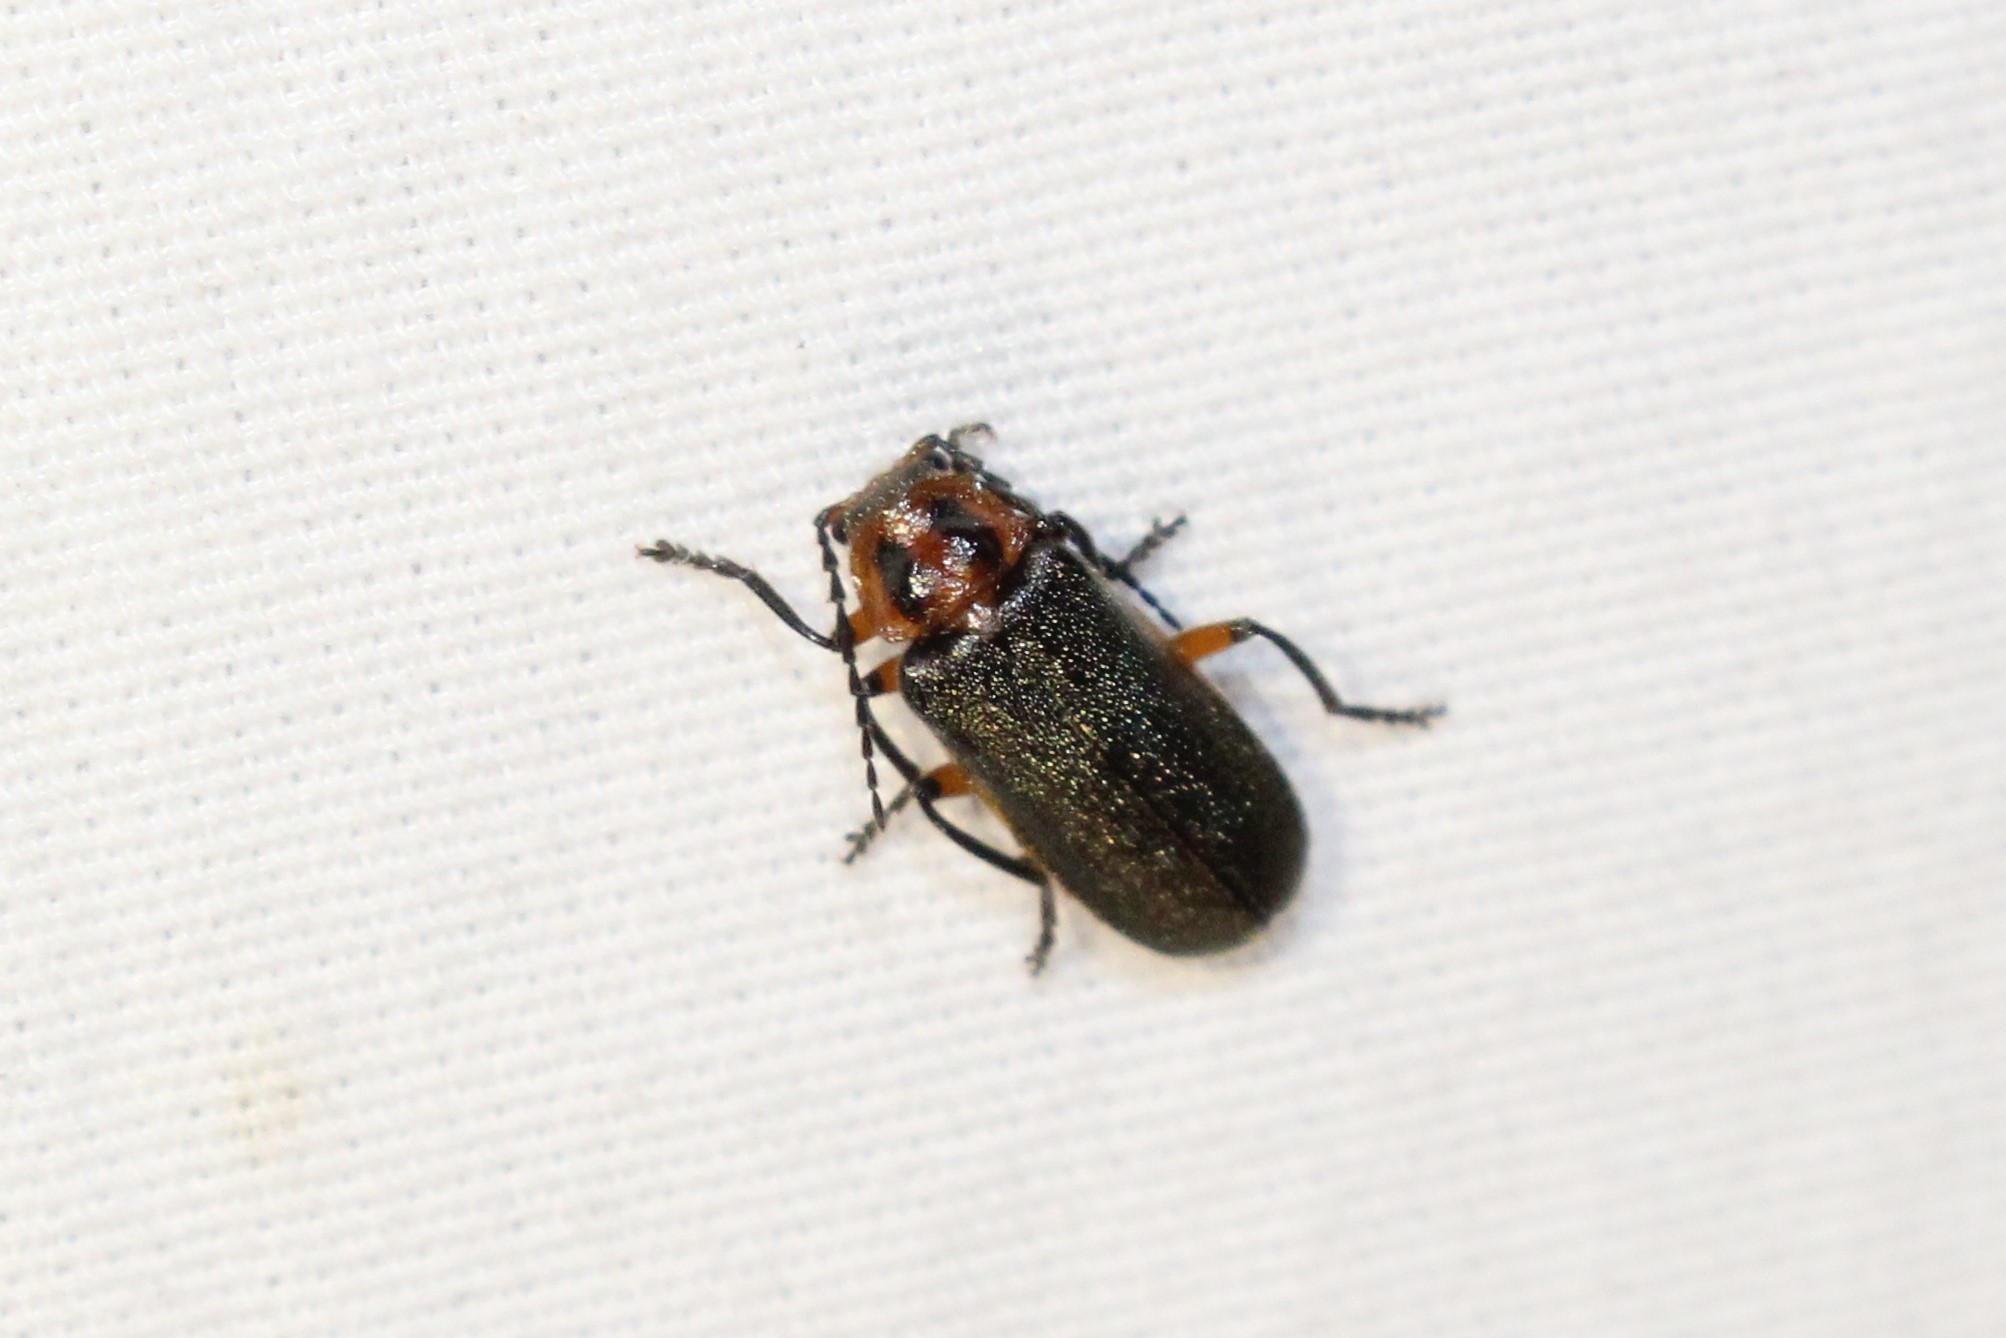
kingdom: Animalia
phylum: Arthropoda
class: Insecta
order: Coleoptera
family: Cantharidae
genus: Atalantycha
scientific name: Atalantycha bilineata
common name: Two-lined leatherwing
